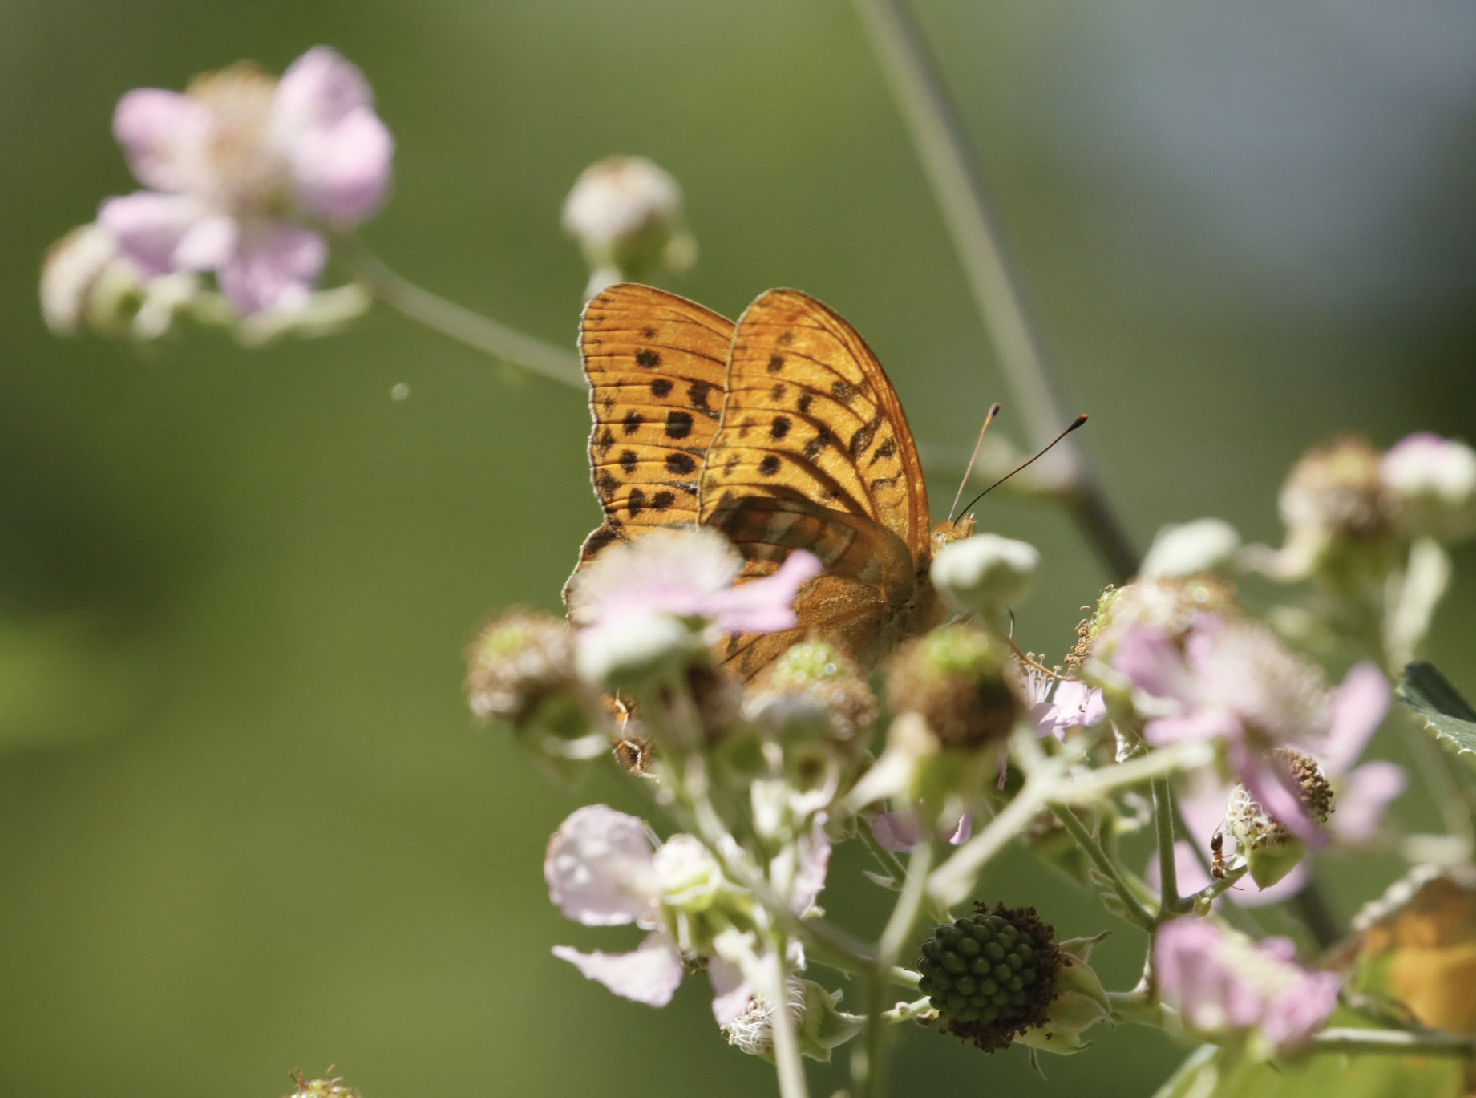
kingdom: Animalia
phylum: Arthropoda
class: Insecta
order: Lepidoptera
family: Nymphalidae
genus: Argynnis
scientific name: Argynnis paphia
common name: Silver-washed fritillary
